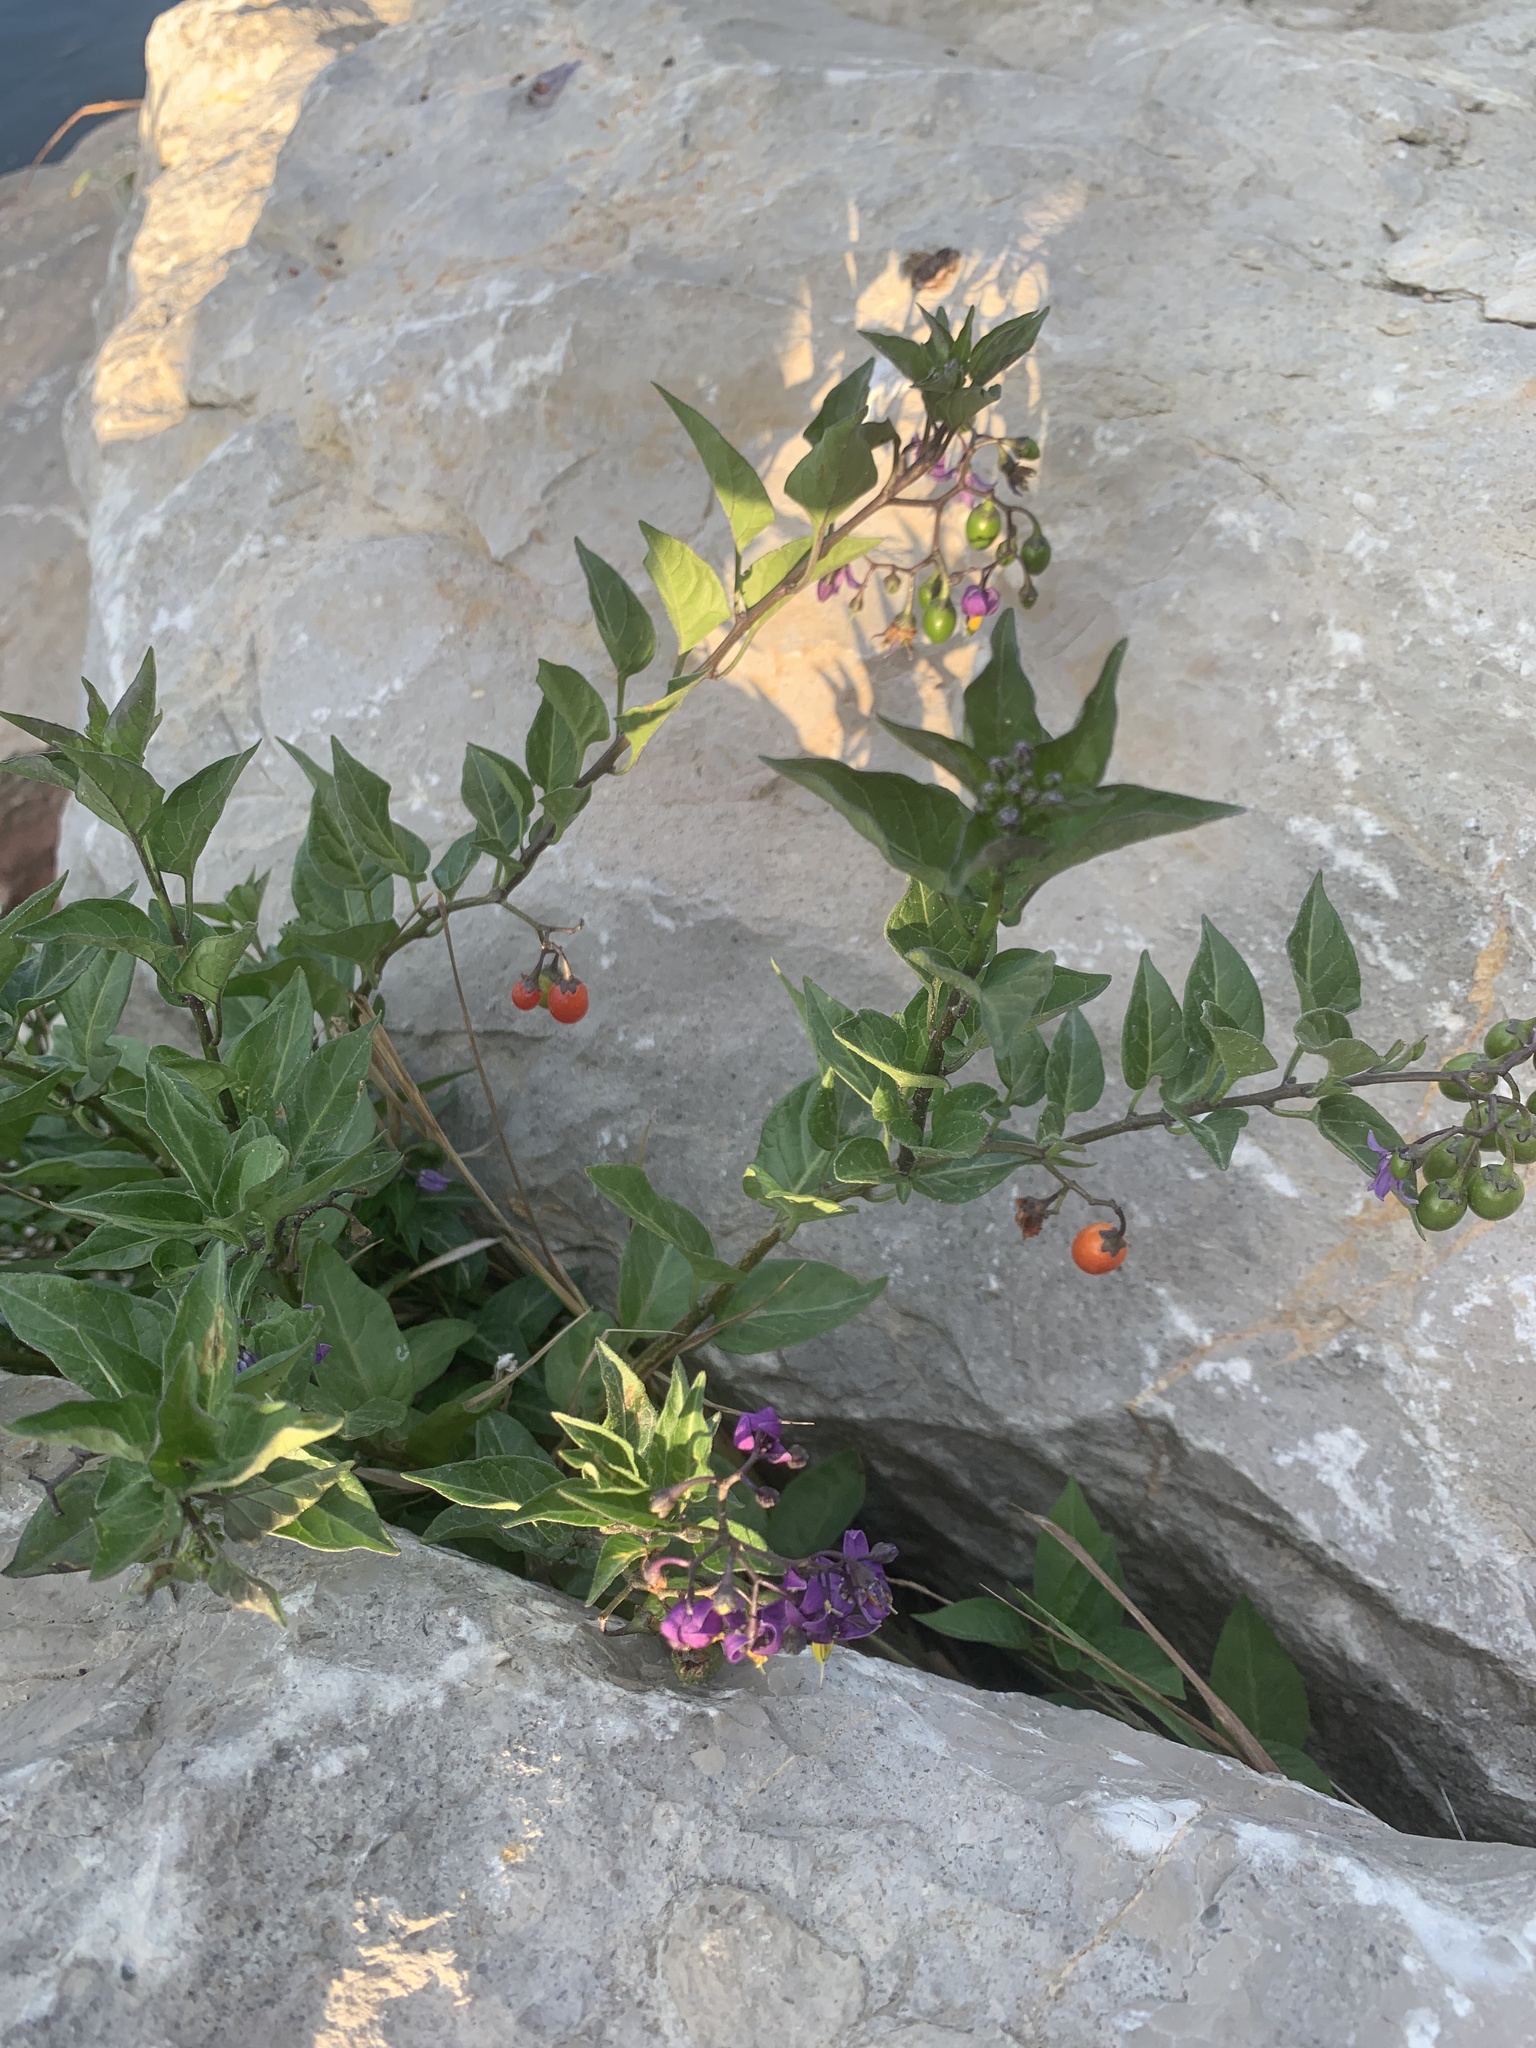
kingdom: Plantae
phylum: Tracheophyta
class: Magnoliopsida
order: Solanales
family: Solanaceae
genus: Solanum
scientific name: Solanum dulcamara
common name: Climbing nightshade
